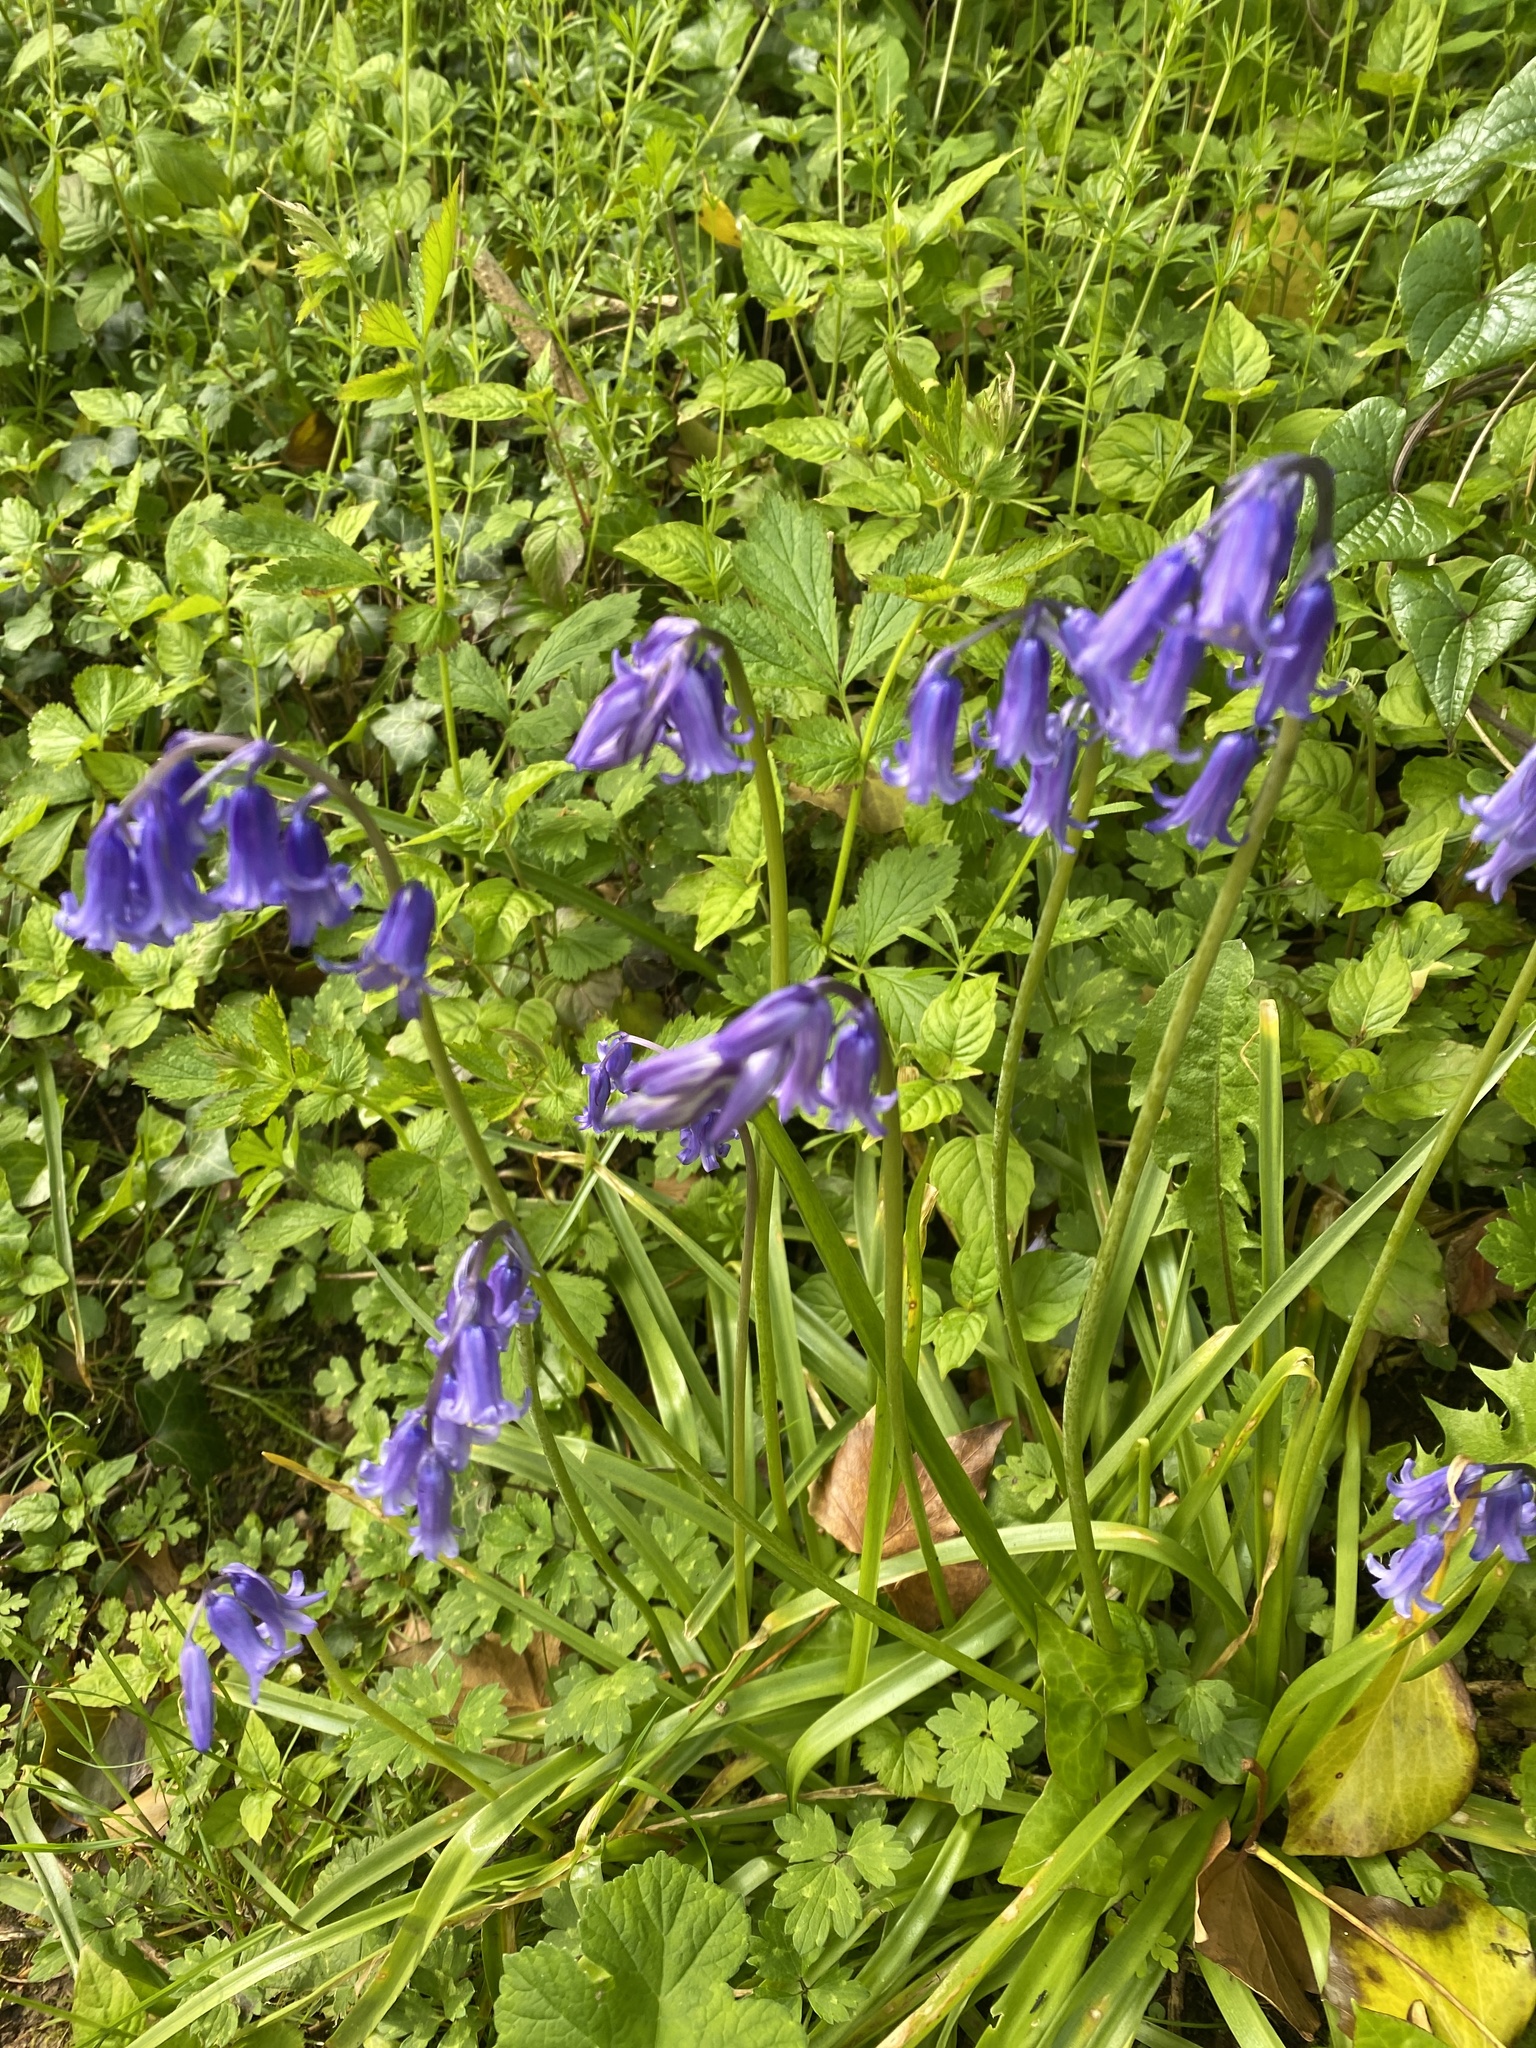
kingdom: Plantae
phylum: Tracheophyta
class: Liliopsida
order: Asparagales
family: Asparagaceae
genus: Hyacinthoides
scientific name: Hyacinthoides non-scripta
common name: Bluebell
